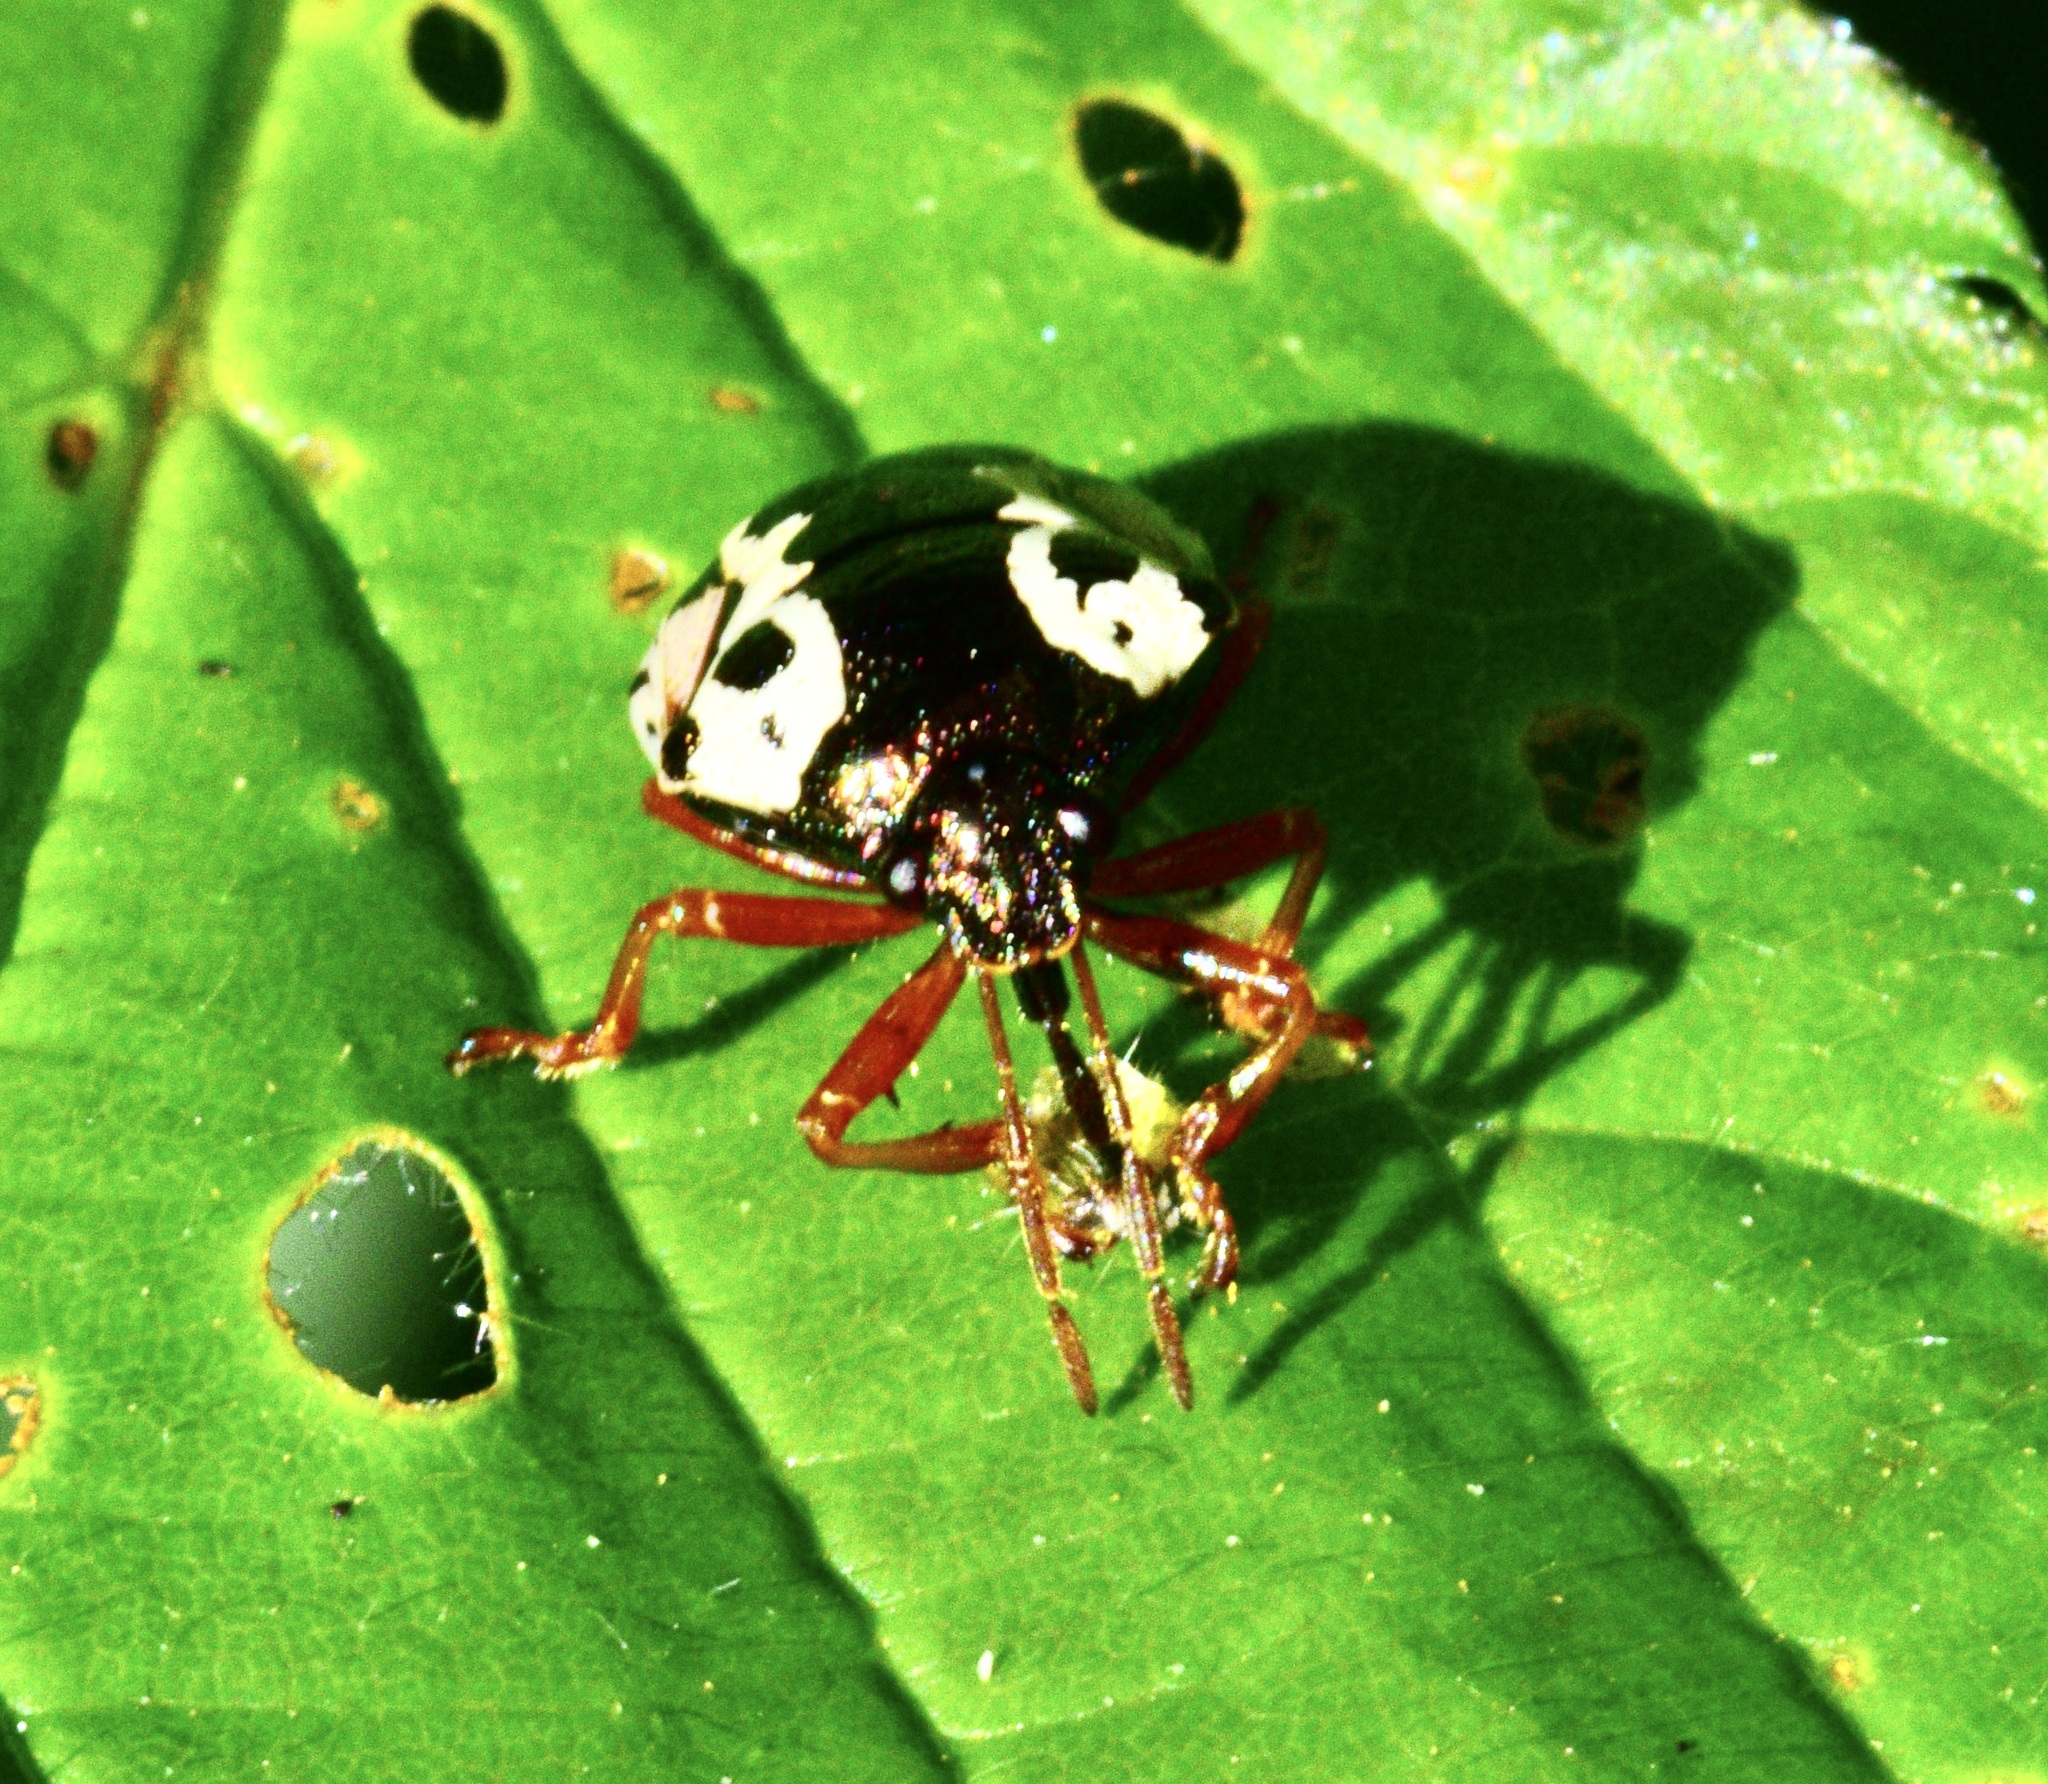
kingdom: Animalia
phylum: Arthropoda
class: Insecta
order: Hemiptera
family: Pentatomidae
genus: Stiretrus
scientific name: Stiretrus anchorago
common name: Anchor stink bug
